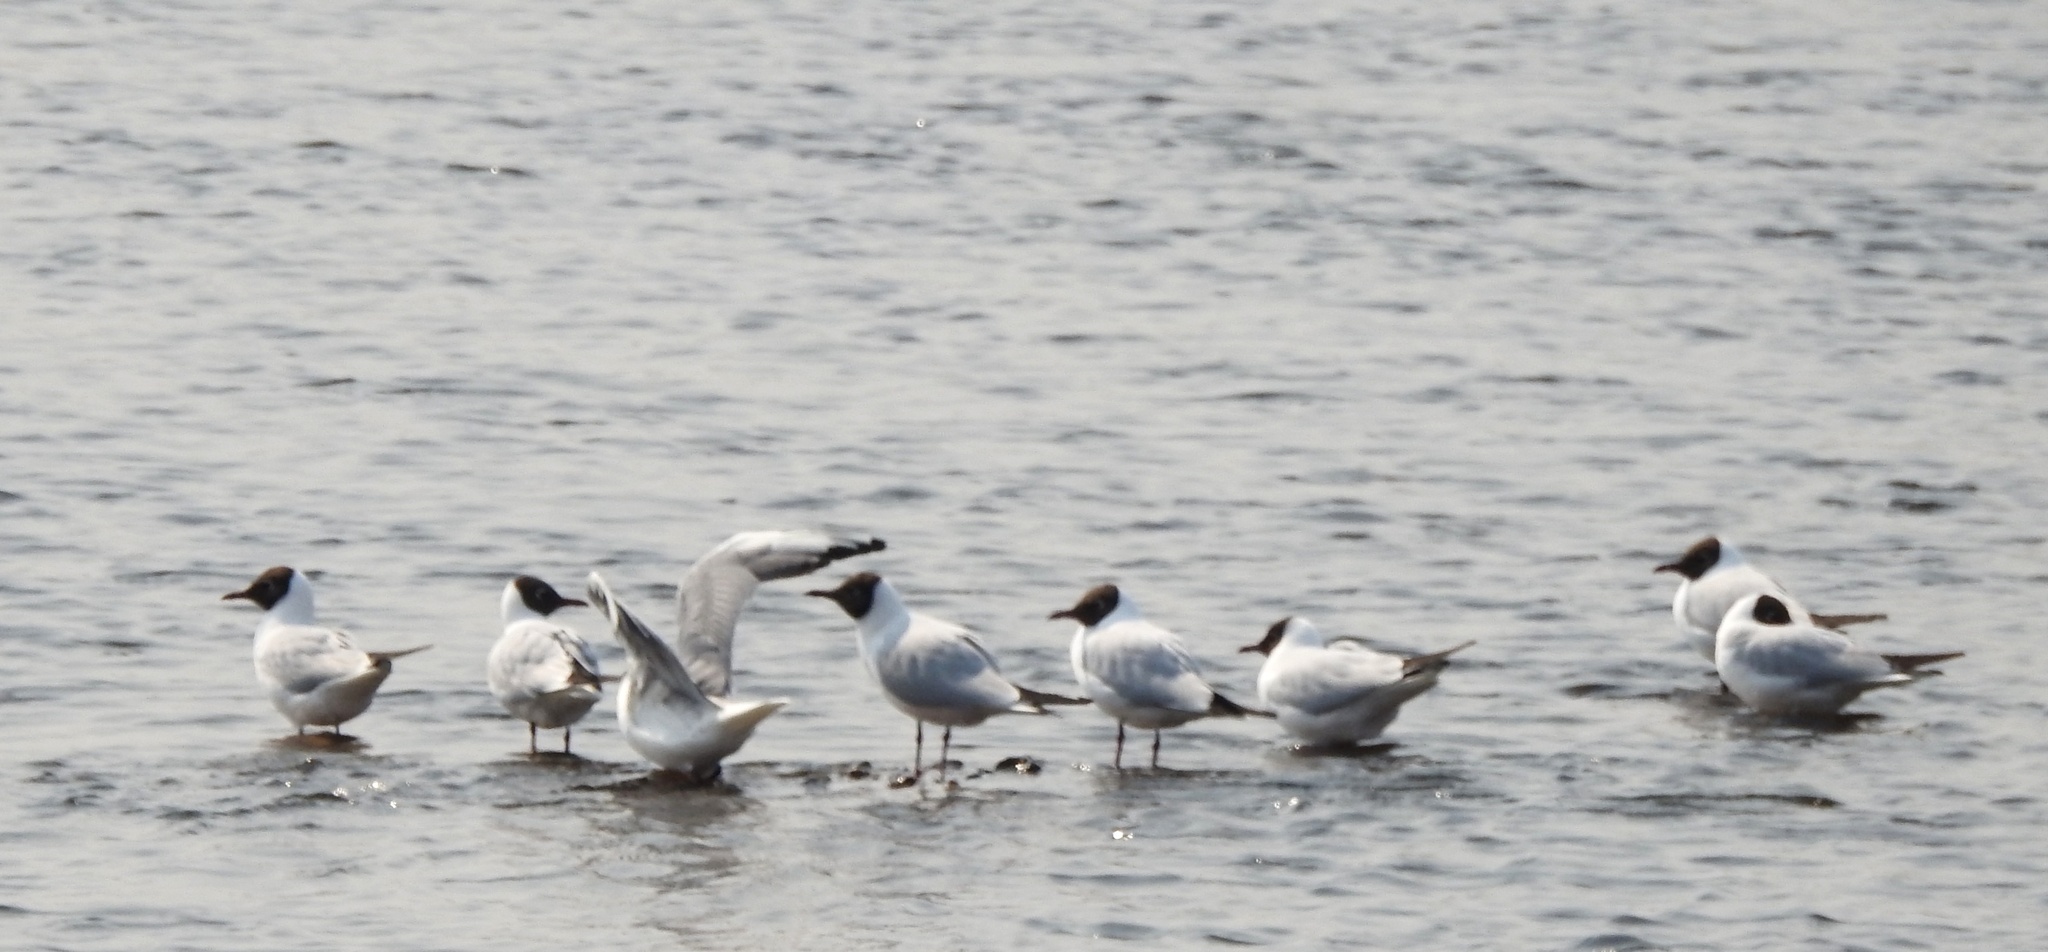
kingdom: Animalia
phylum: Chordata
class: Aves
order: Charadriiformes
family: Laridae
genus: Chroicocephalus
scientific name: Chroicocephalus ridibundus
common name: Black-headed gull
